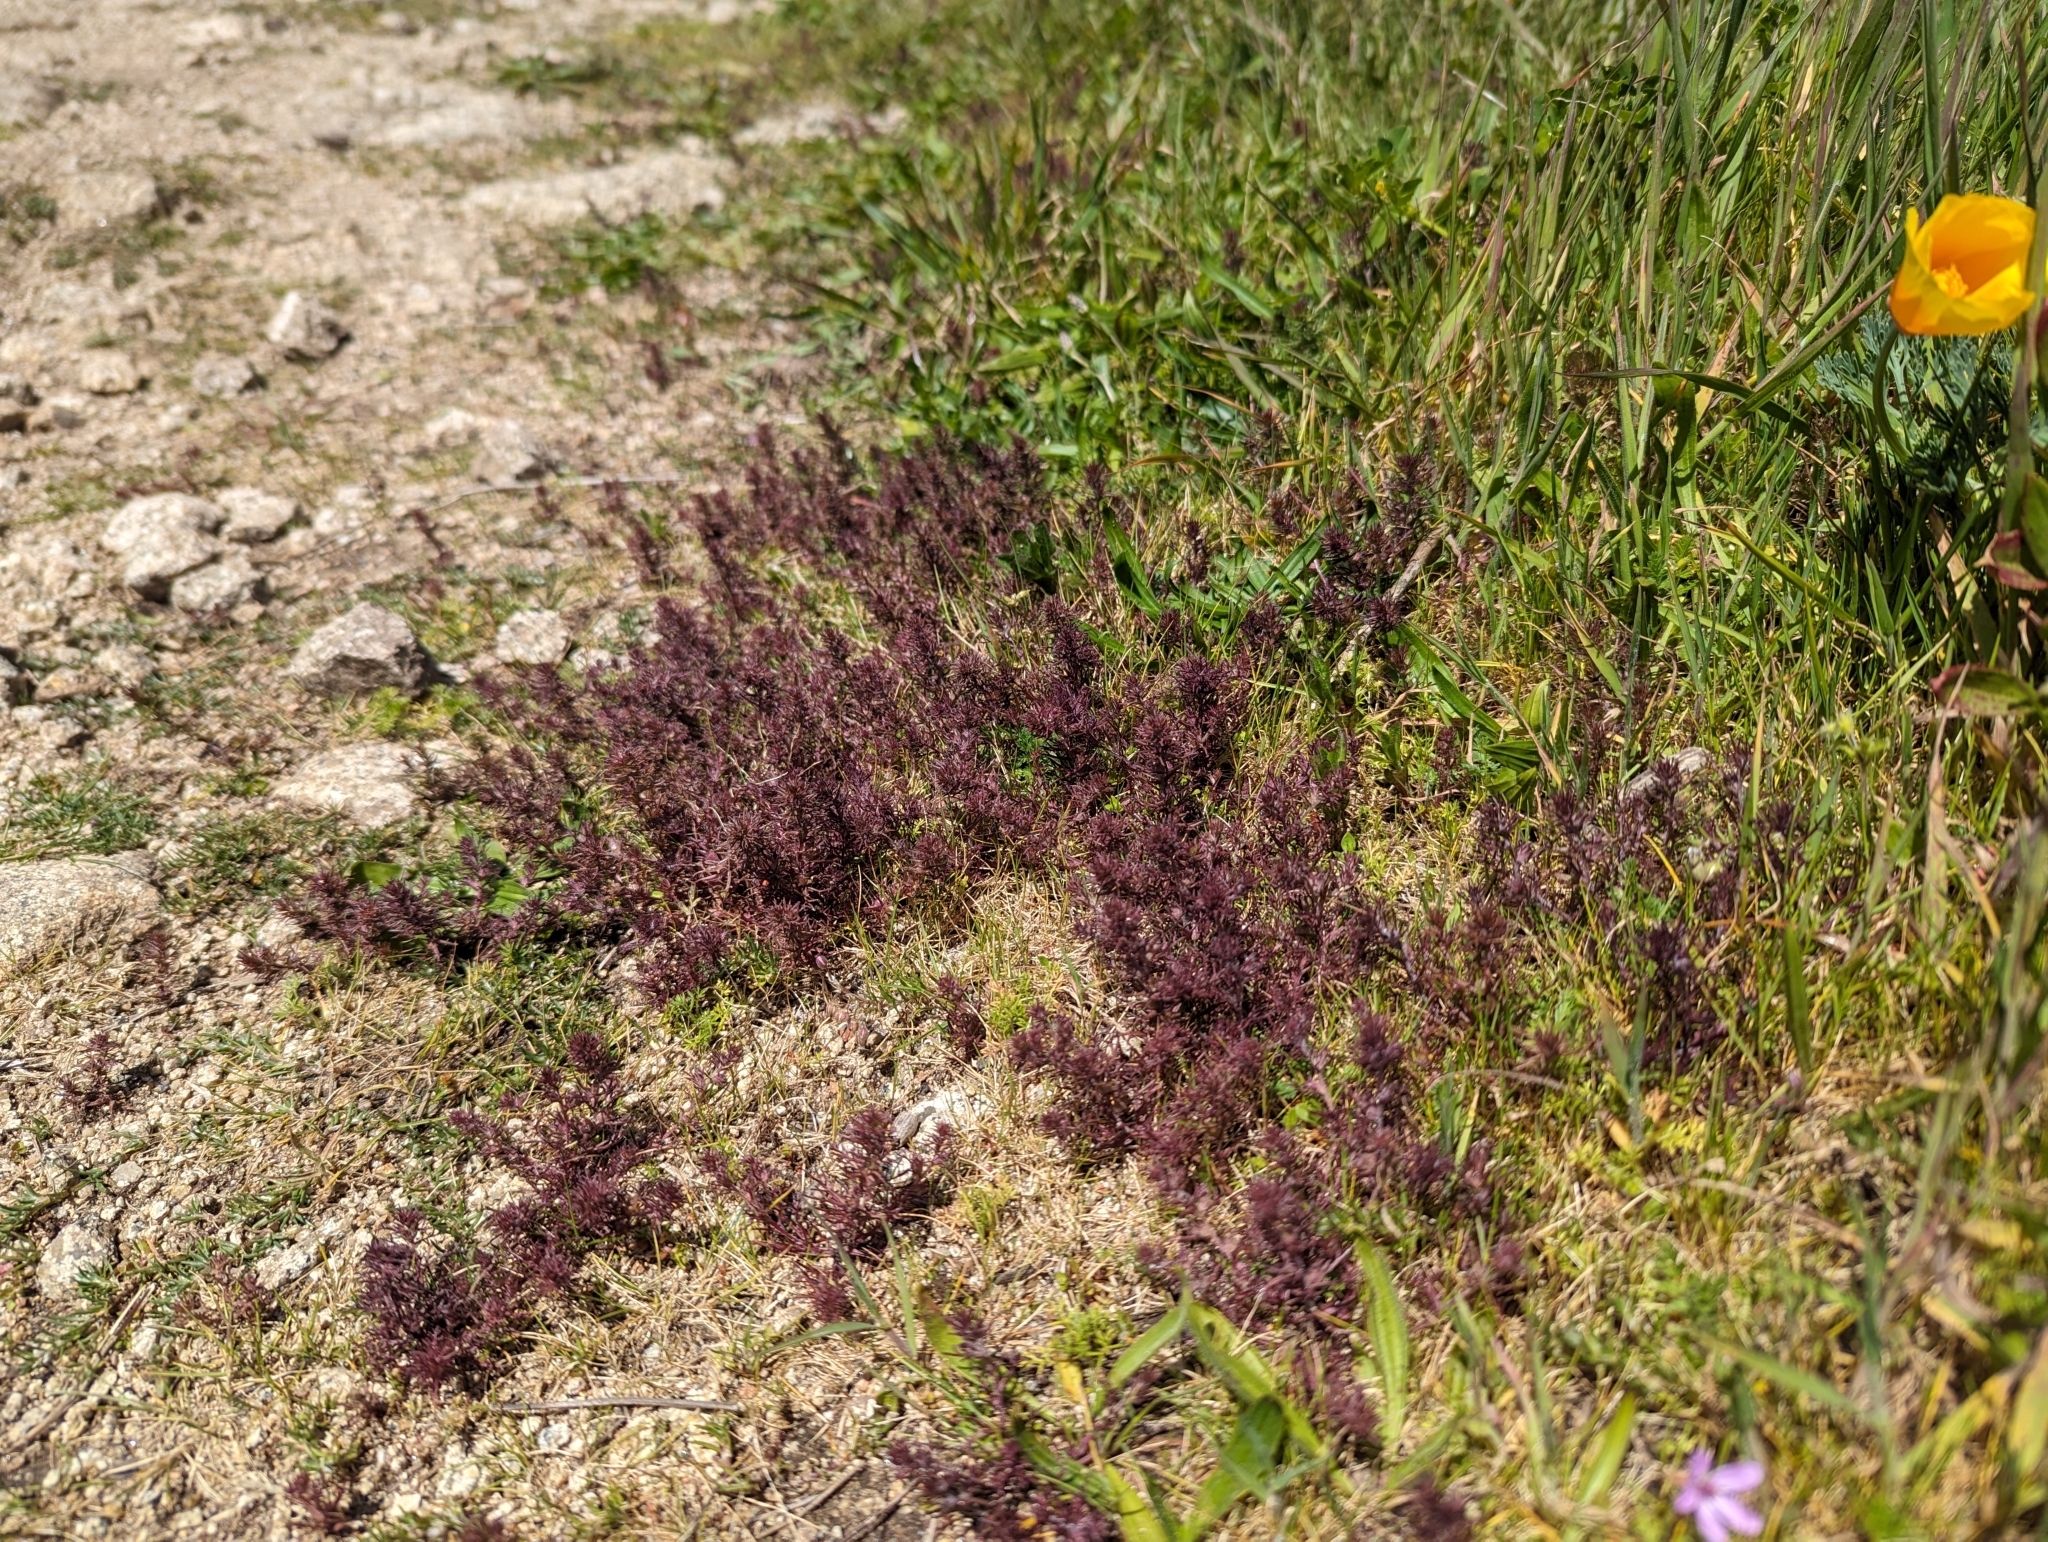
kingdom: Plantae
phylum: Tracheophyta
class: Magnoliopsida
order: Lamiales
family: Orobanchaceae
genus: Triphysaria
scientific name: Triphysaria pusilla
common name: Dwarf false owl-clover
